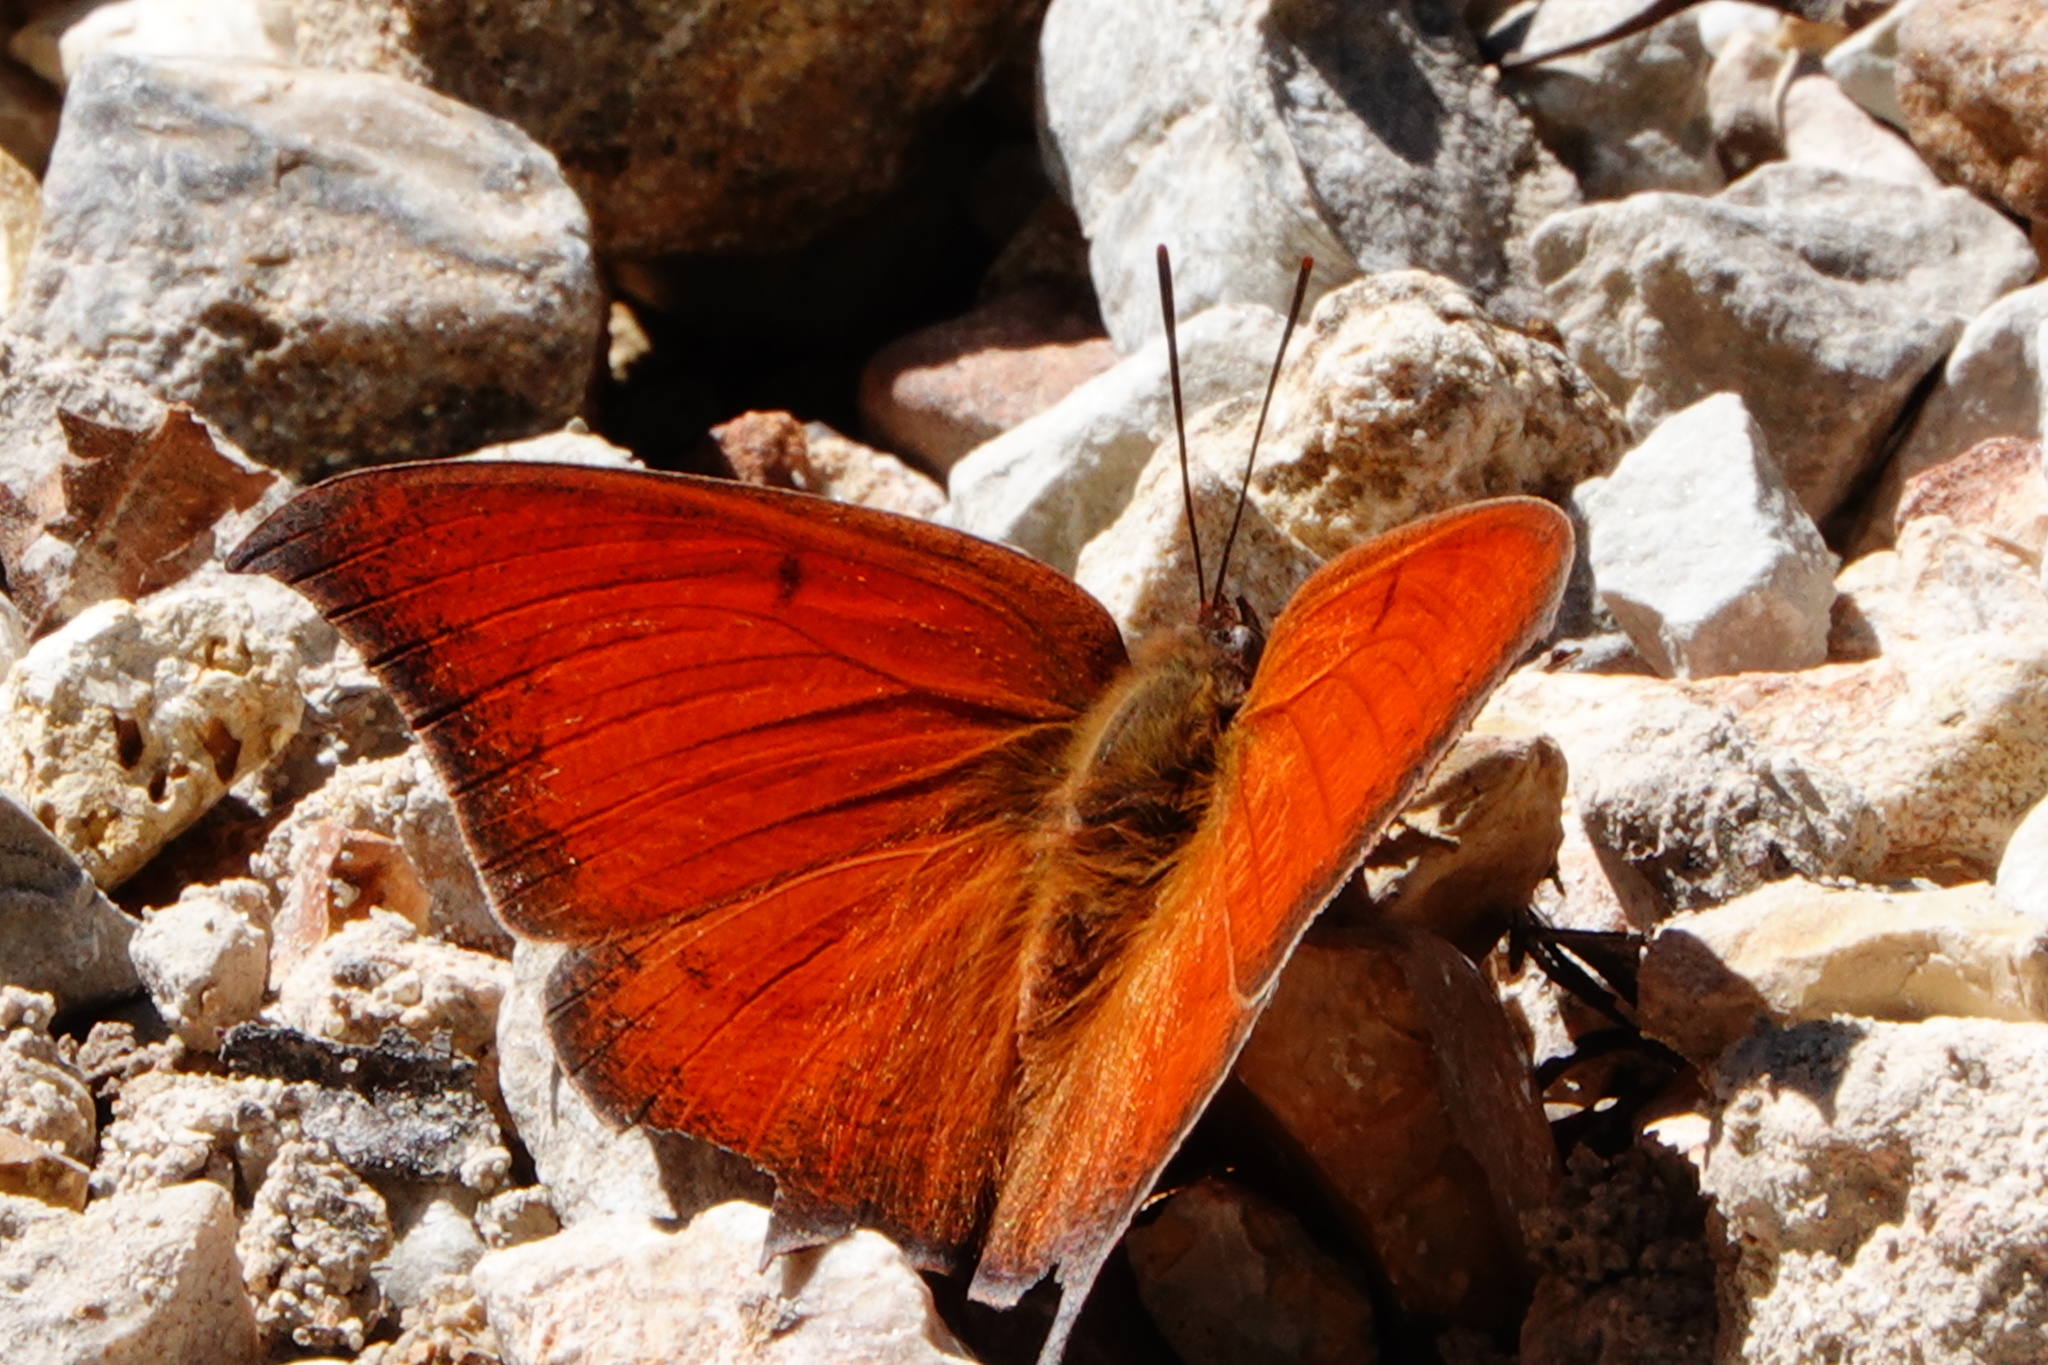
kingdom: Animalia
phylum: Arthropoda
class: Insecta
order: Lepidoptera
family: Nymphalidae
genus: Anaea
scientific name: Anaea andria
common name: Goatweed leafwing
